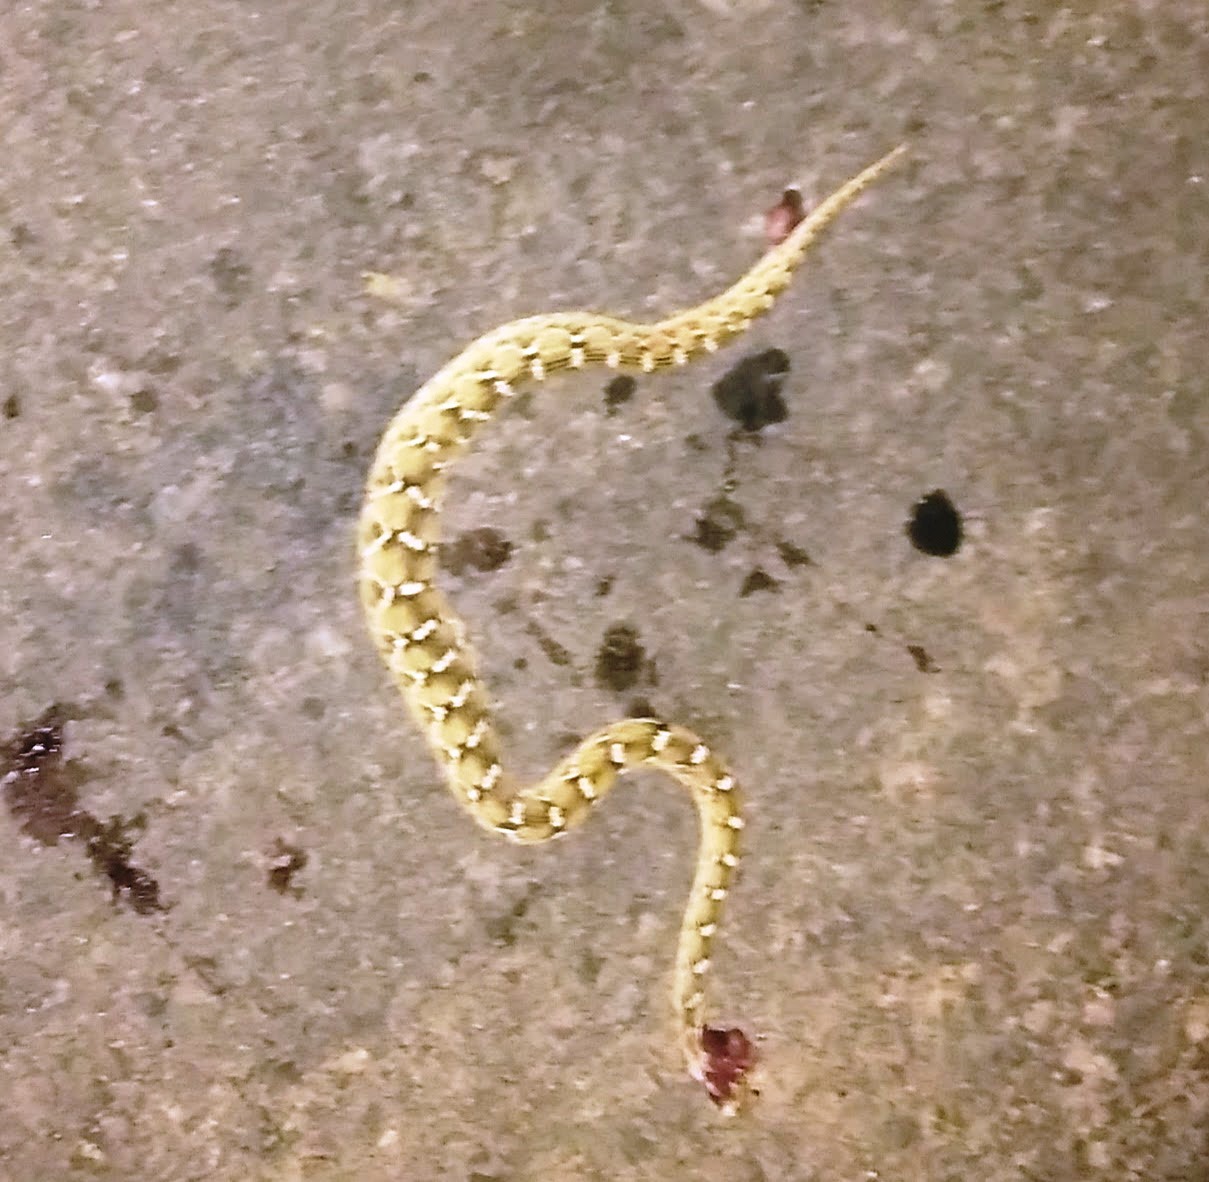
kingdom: Animalia
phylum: Chordata
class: Squamata
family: Viperidae
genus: Echis
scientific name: Echis carinatus
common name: Saw-scaled viper
